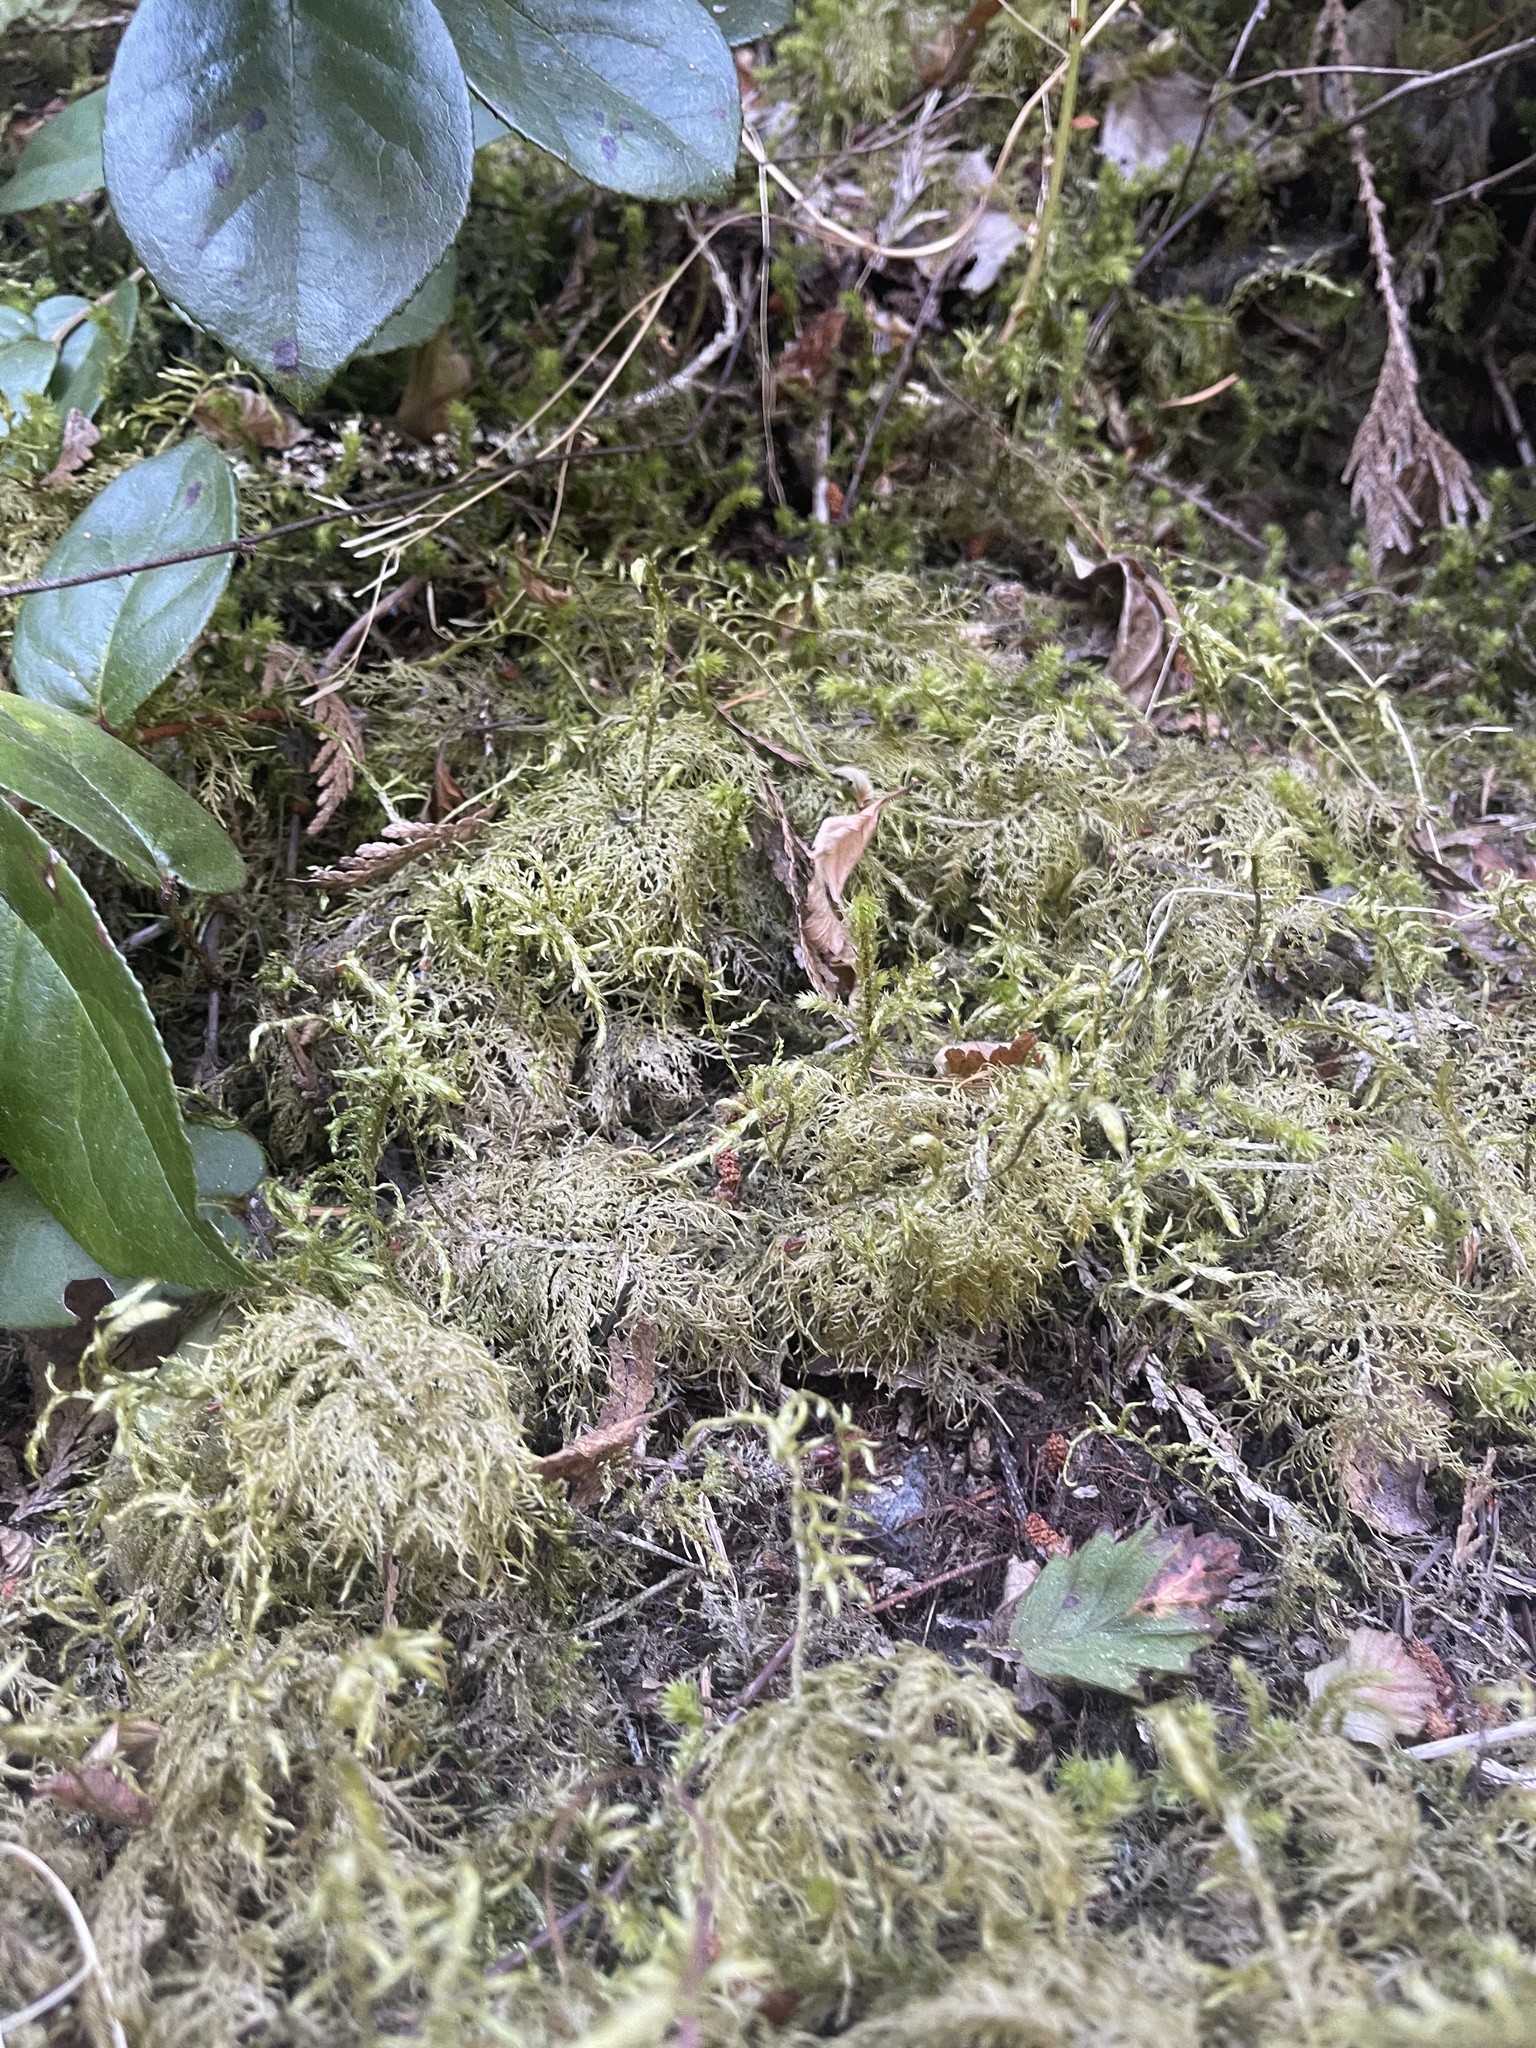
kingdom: Plantae
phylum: Bryophyta
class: Bryopsida
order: Hypnales
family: Hylocomiaceae
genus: Hylocomium
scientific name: Hylocomium splendens
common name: Stairstep moss
